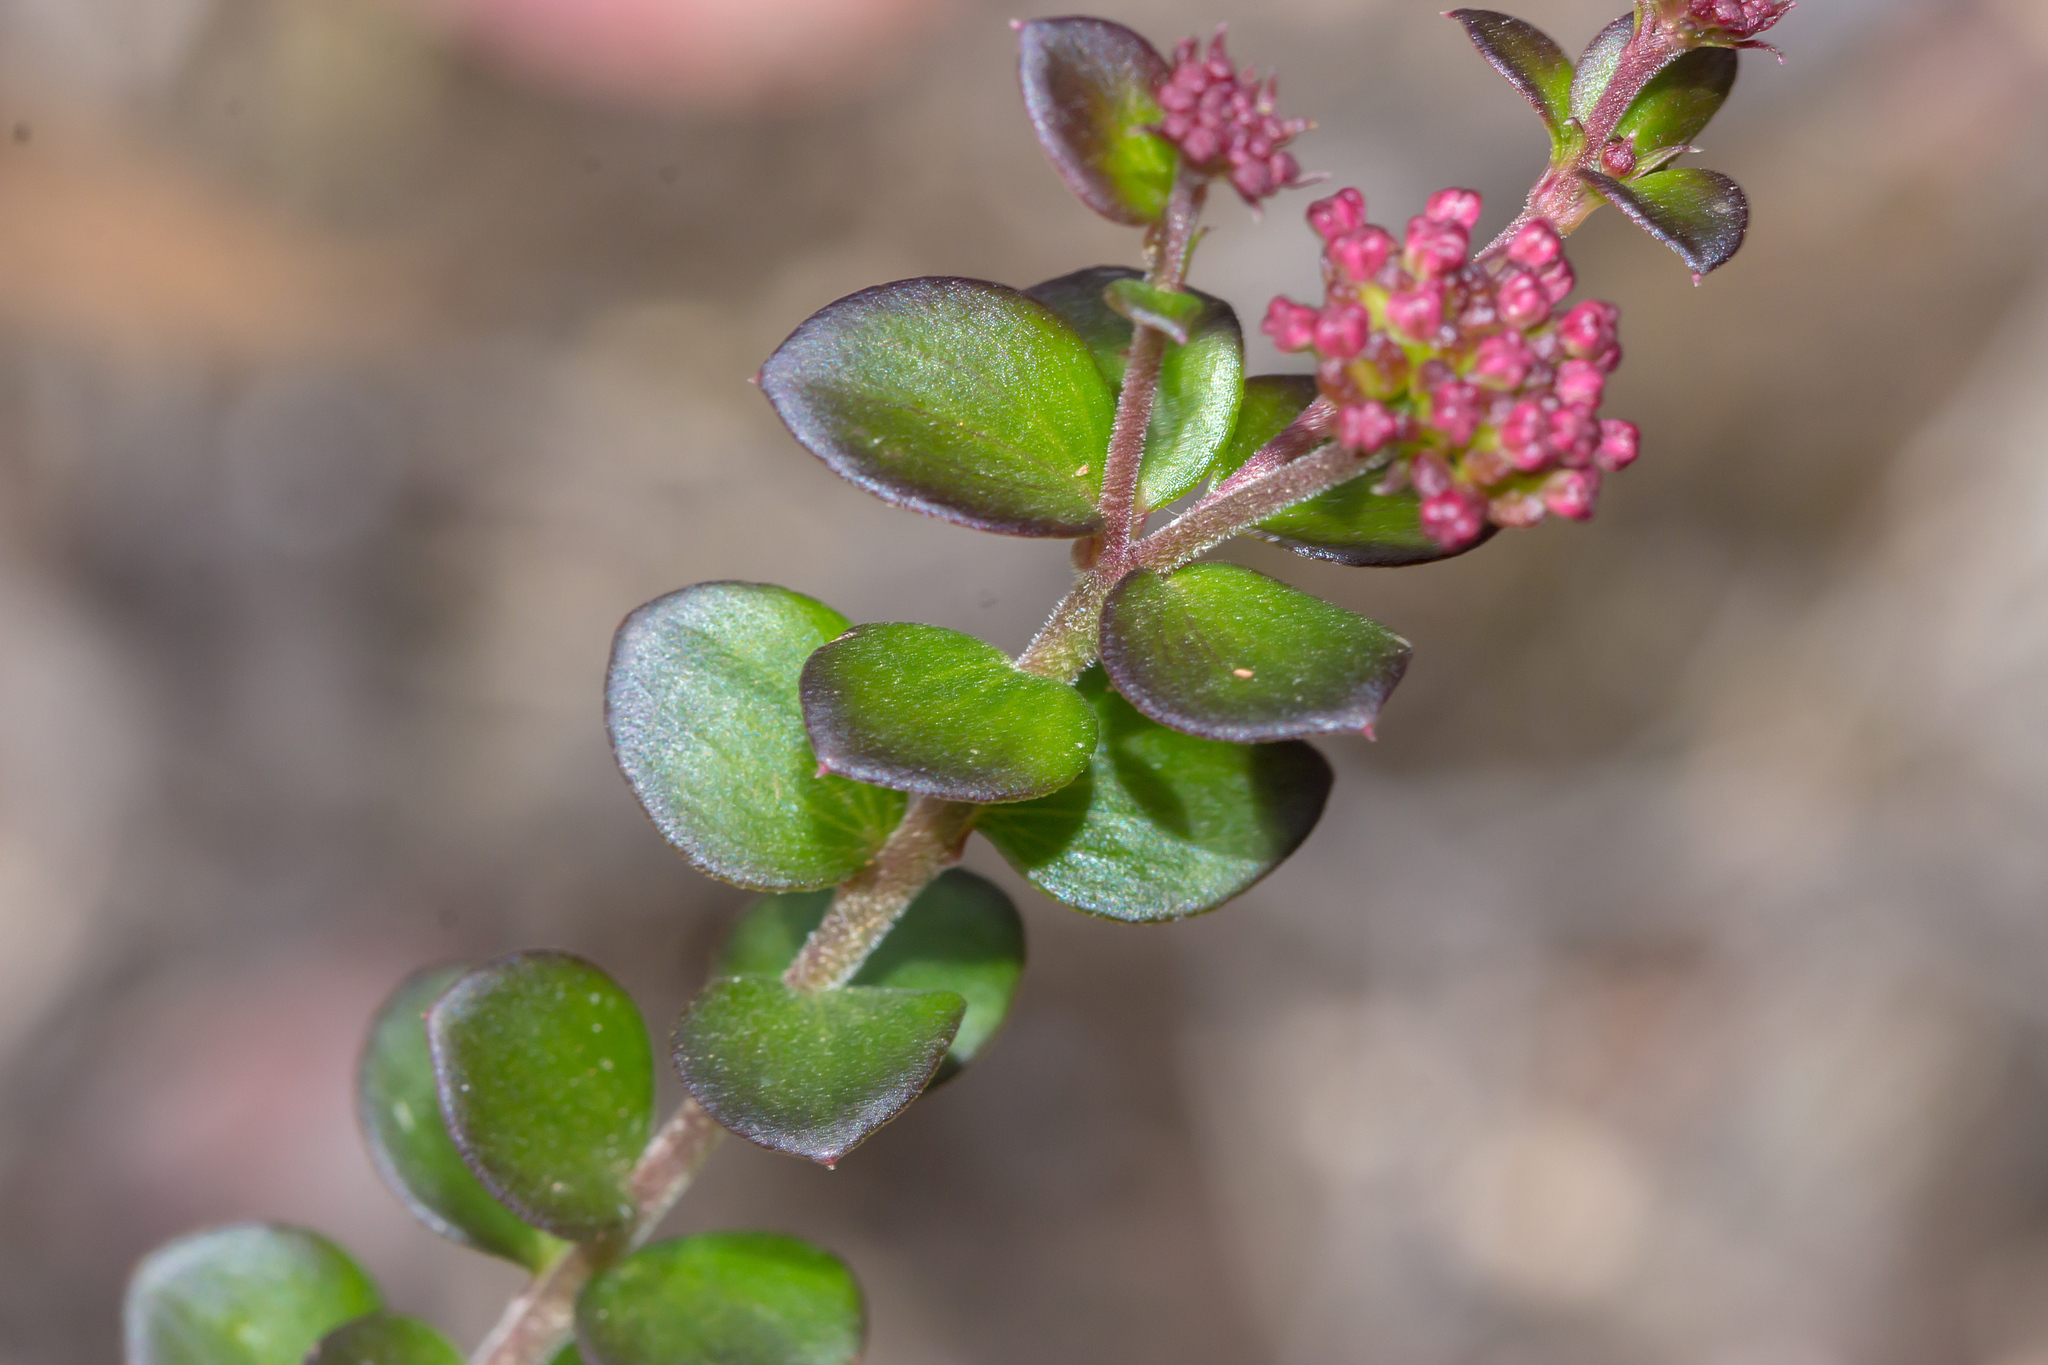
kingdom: Plantae
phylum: Tracheophyta
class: Magnoliopsida
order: Apiales
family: Apiaceae
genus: Platysace
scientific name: Platysace lanceolata
